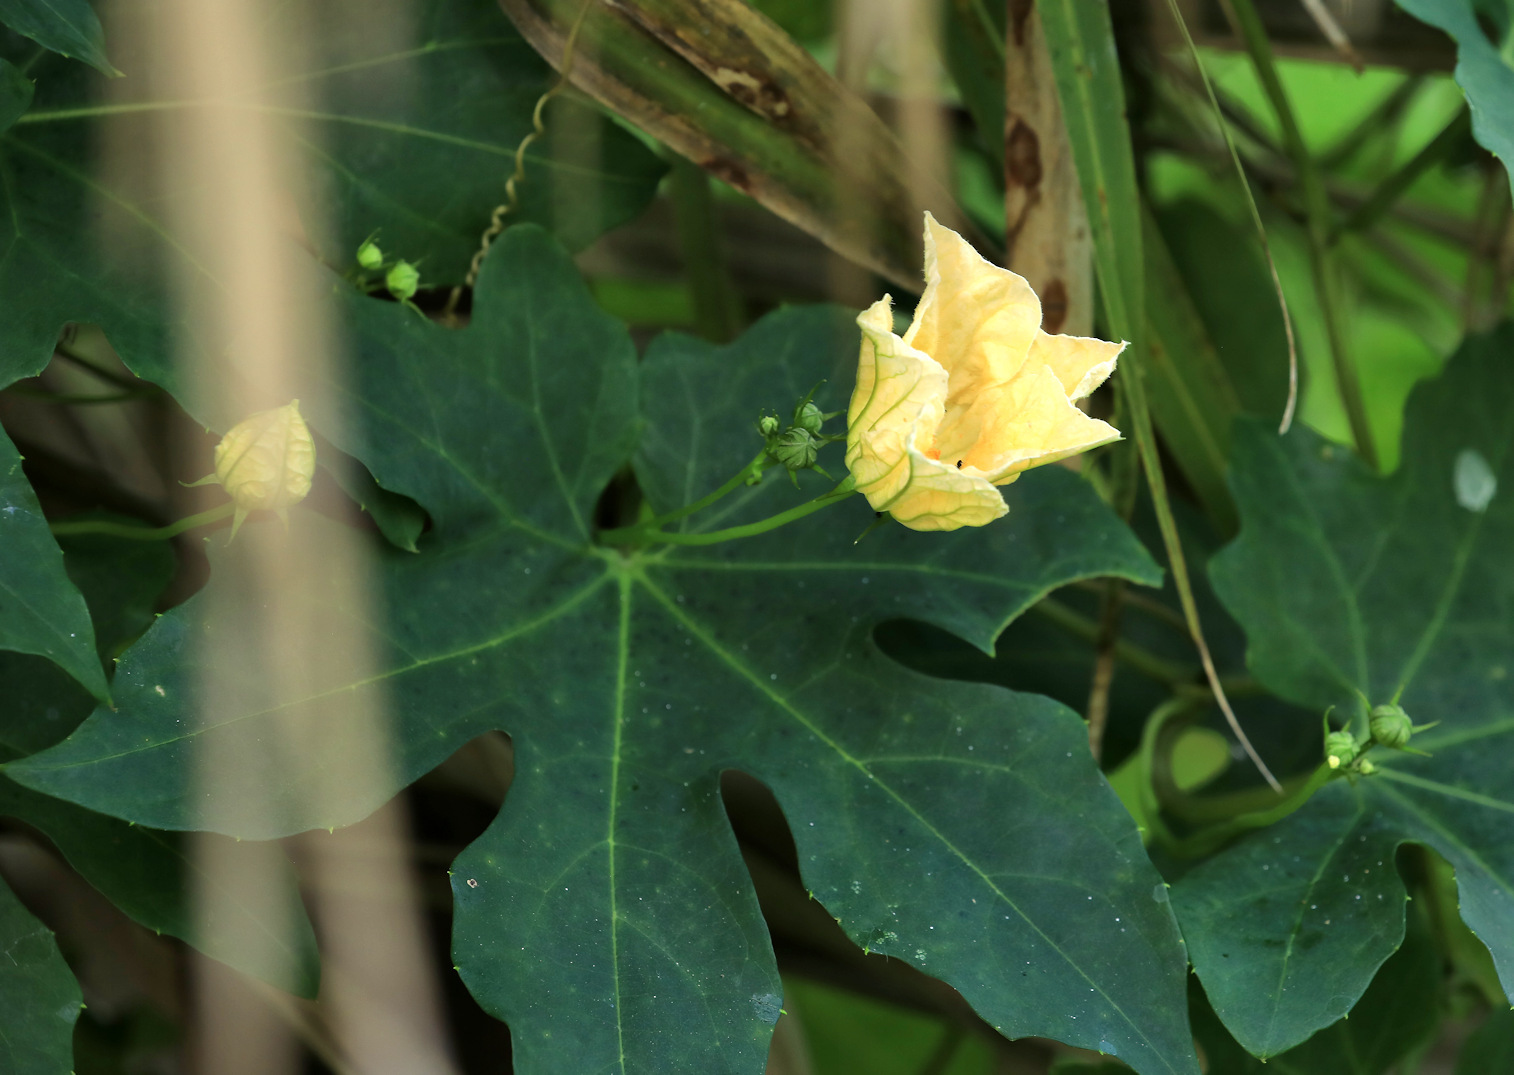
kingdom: Plantae
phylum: Tracheophyta
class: Magnoliopsida
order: Cucurbitales
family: Cucurbitaceae
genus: Coccinia
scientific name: Coccinia palmata
